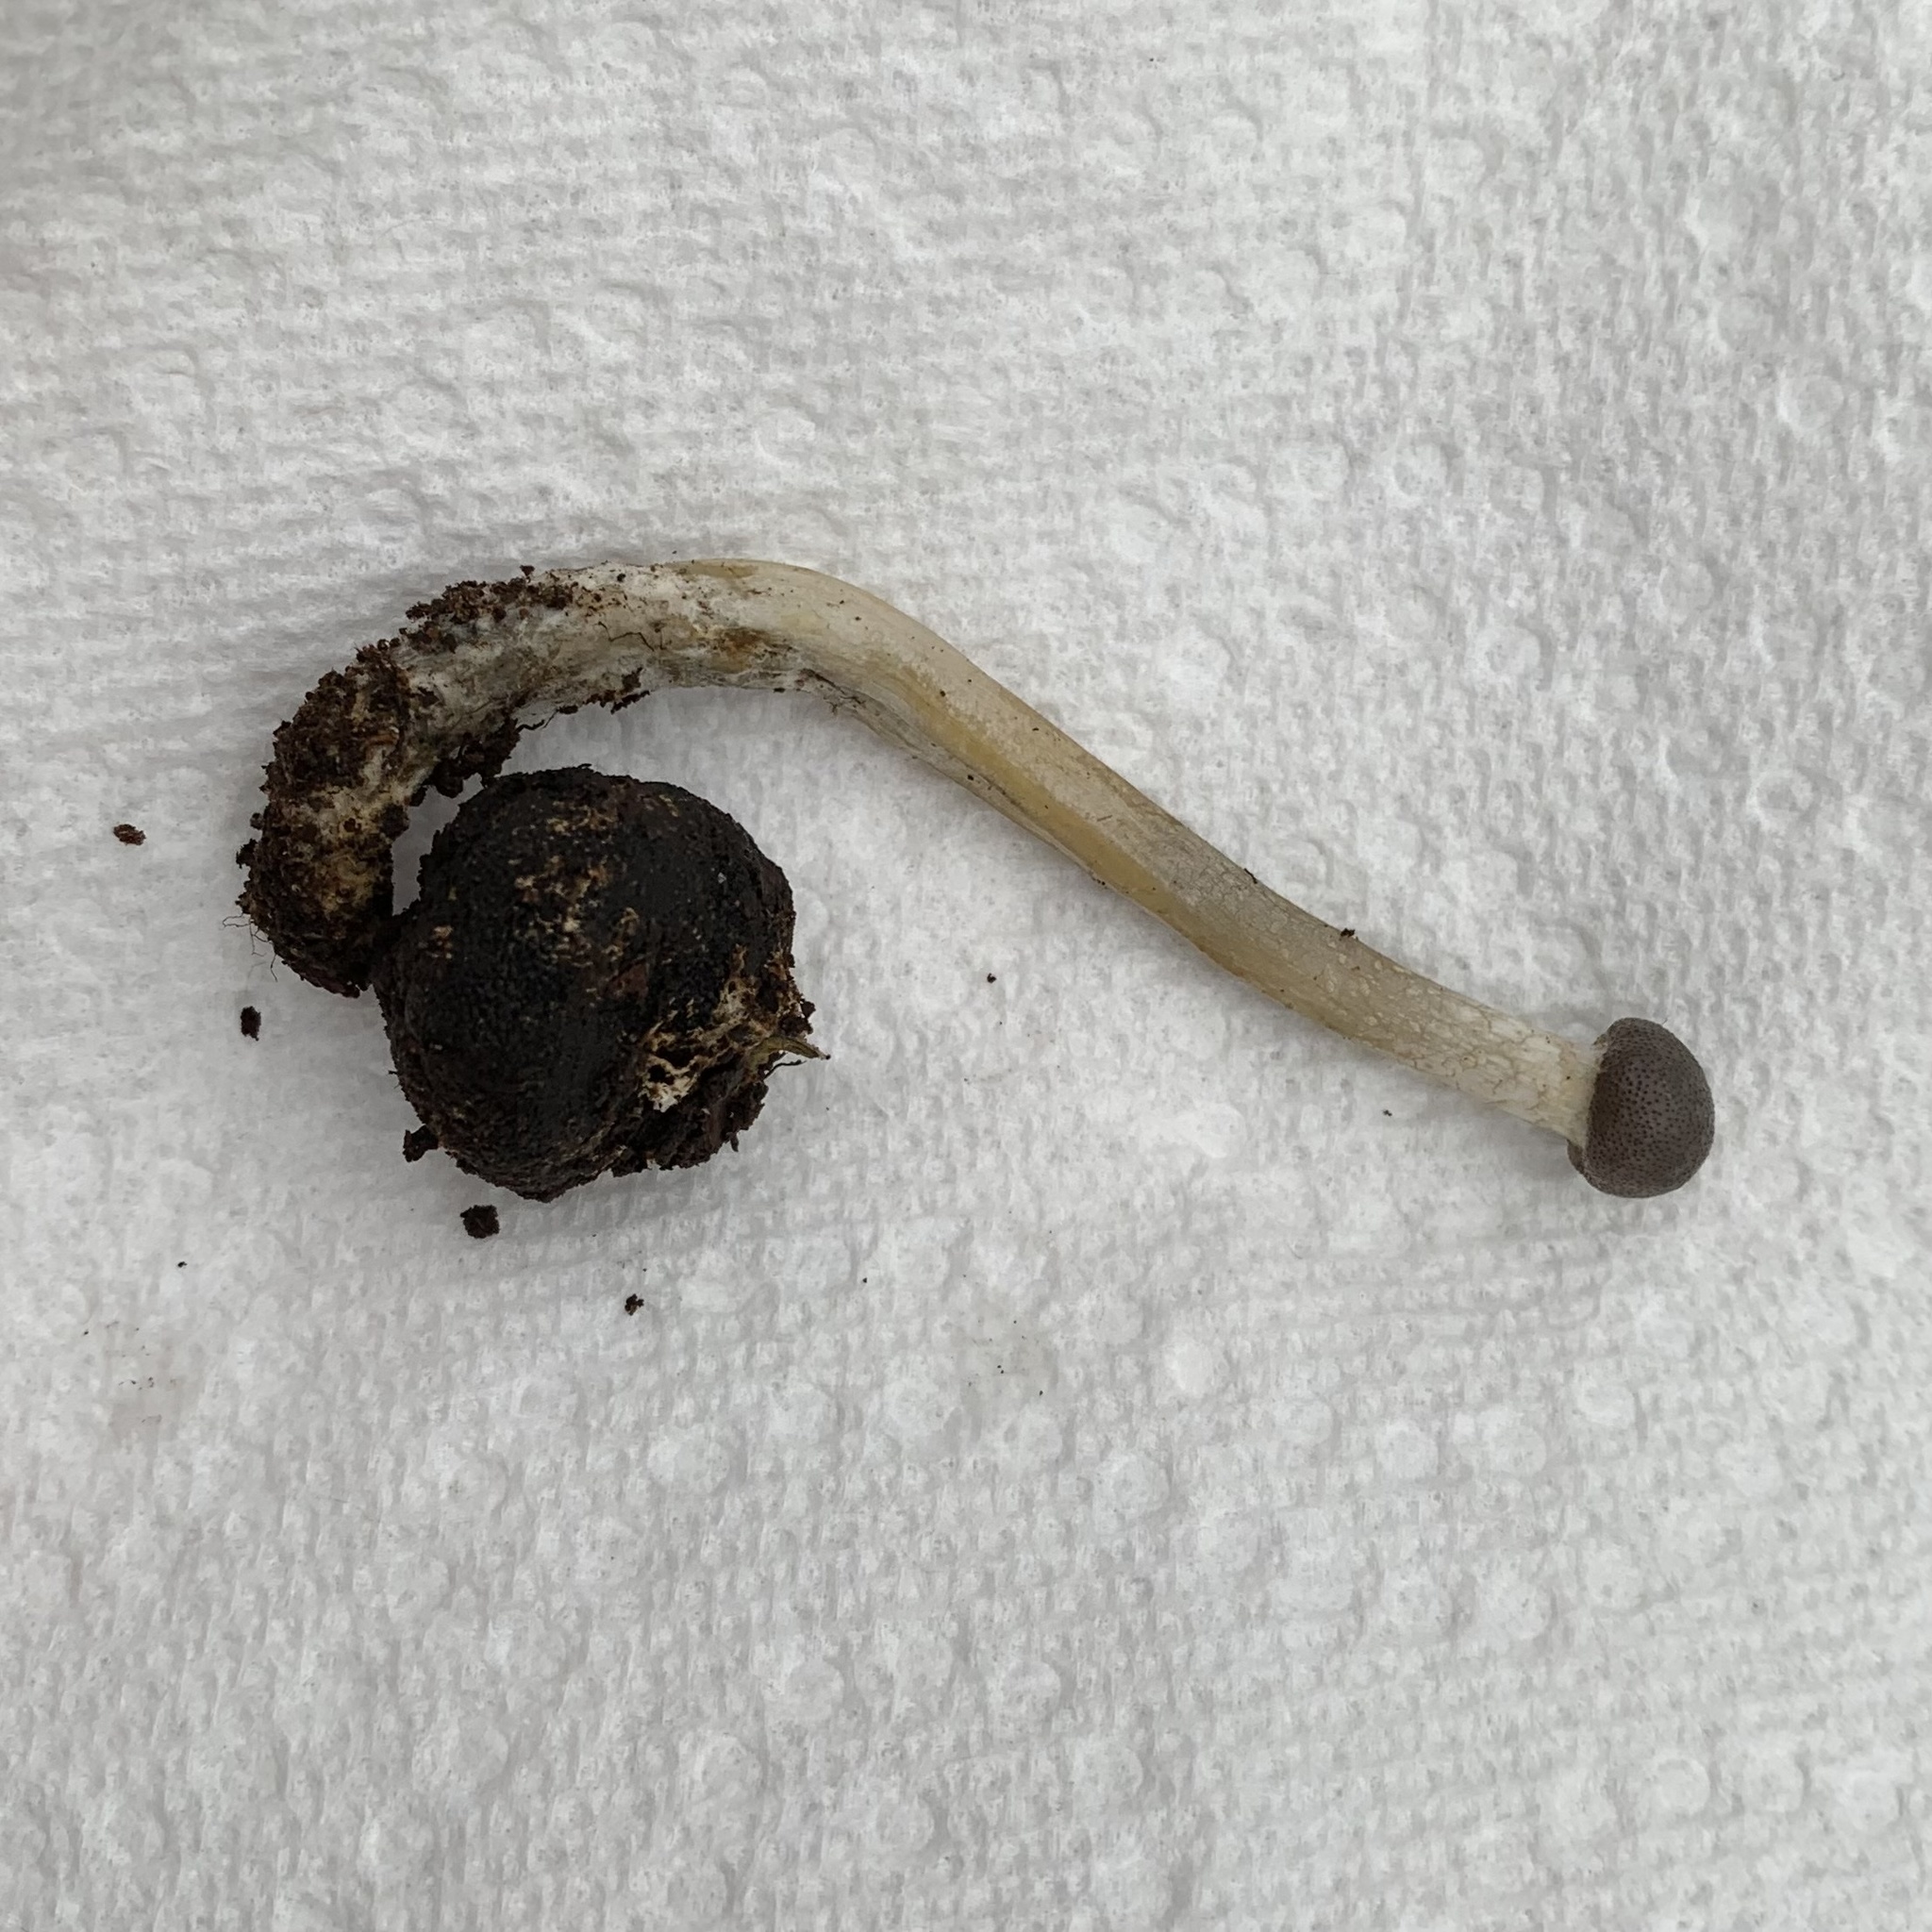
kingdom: Fungi
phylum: Ascomycota
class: Sordariomycetes
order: Hypocreales
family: Ophiocordycipitaceae
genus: Tolypocladium
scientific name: Tolypocladium rouxii
